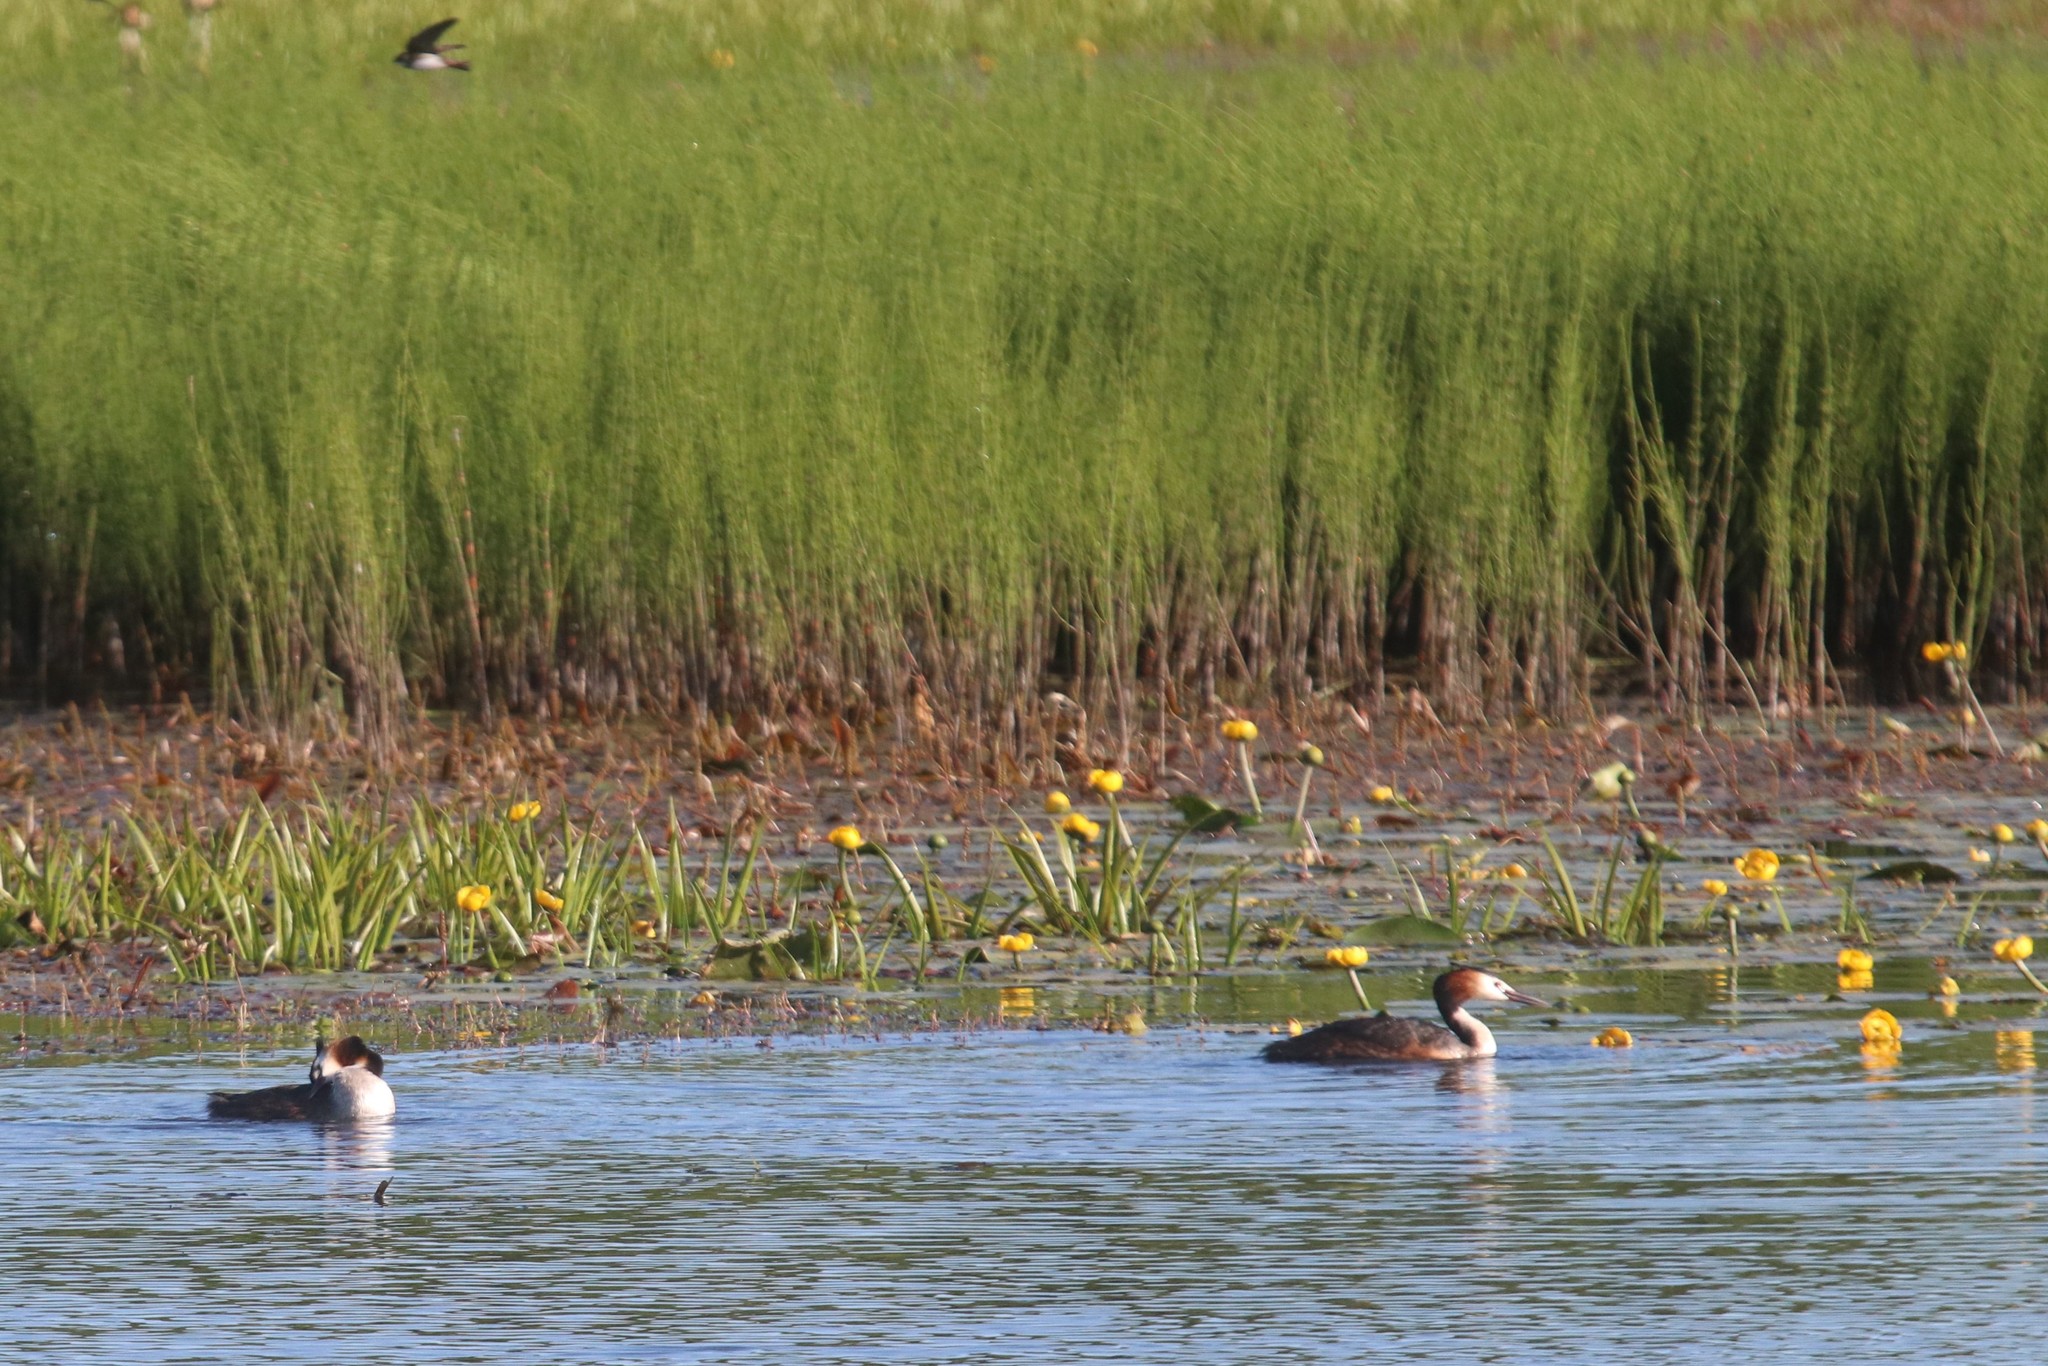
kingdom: Animalia
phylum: Chordata
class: Aves
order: Podicipediformes
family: Podicipedidae
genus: Podiceps
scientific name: Podiceps cristatus
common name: Great crested grebe
